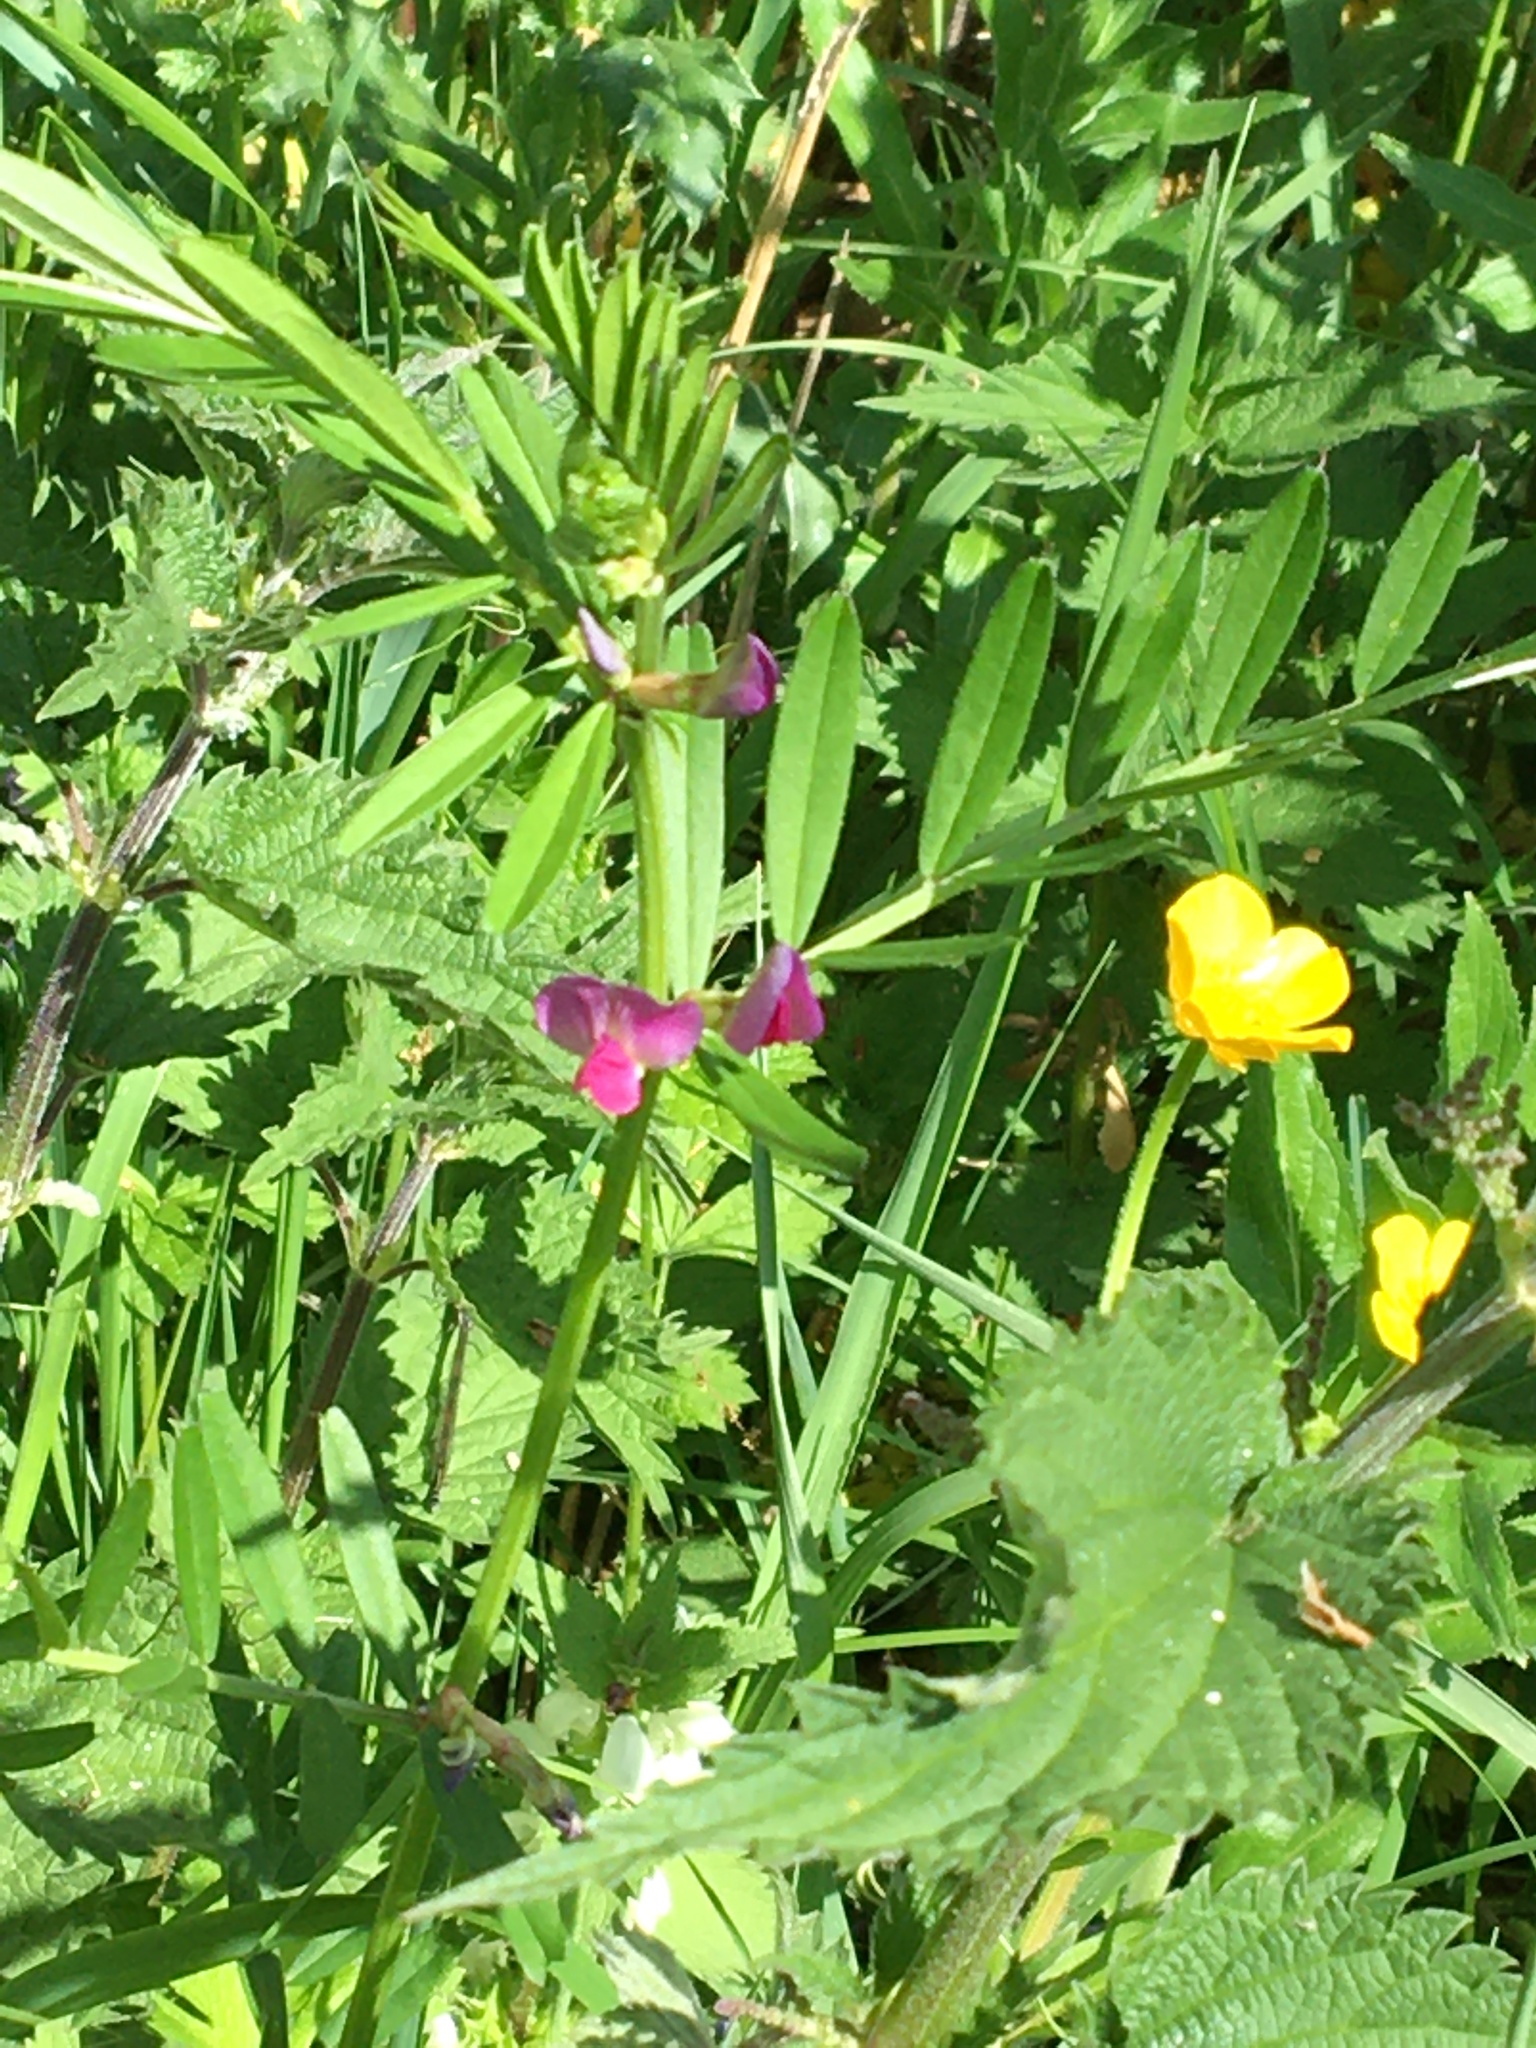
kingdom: Plantae
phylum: Tracheophyta
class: Magnoliopsida
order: Fabales
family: Fabaceae
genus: Vicia
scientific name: Vicia sativa
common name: Garden vetch
